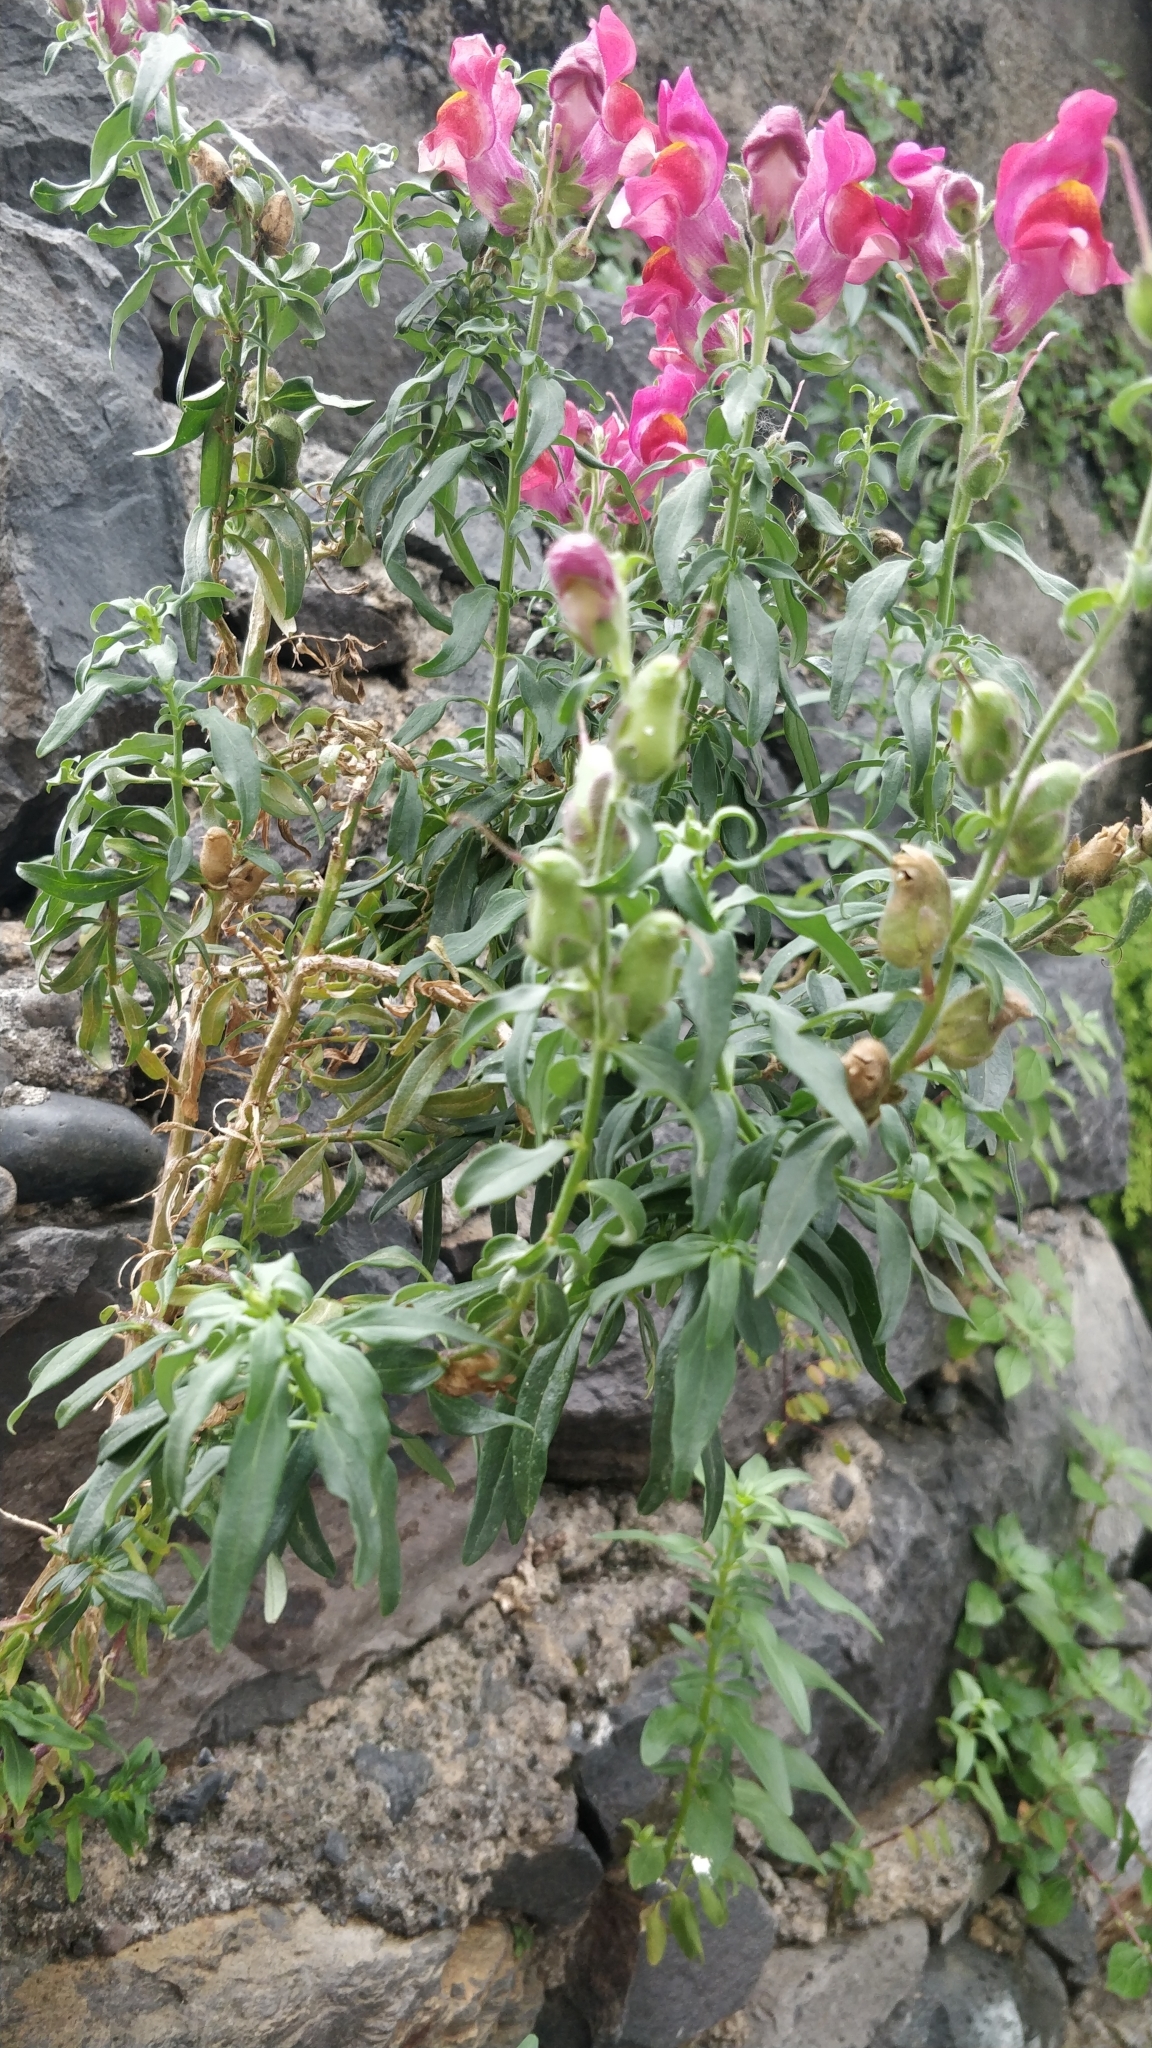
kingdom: Plantae
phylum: Tracheophyta
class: Magnoliopsida
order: Lamiales
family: Plantaginaceae
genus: Antirrhinum
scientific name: Antirrhinum majus
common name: Snapdragon
